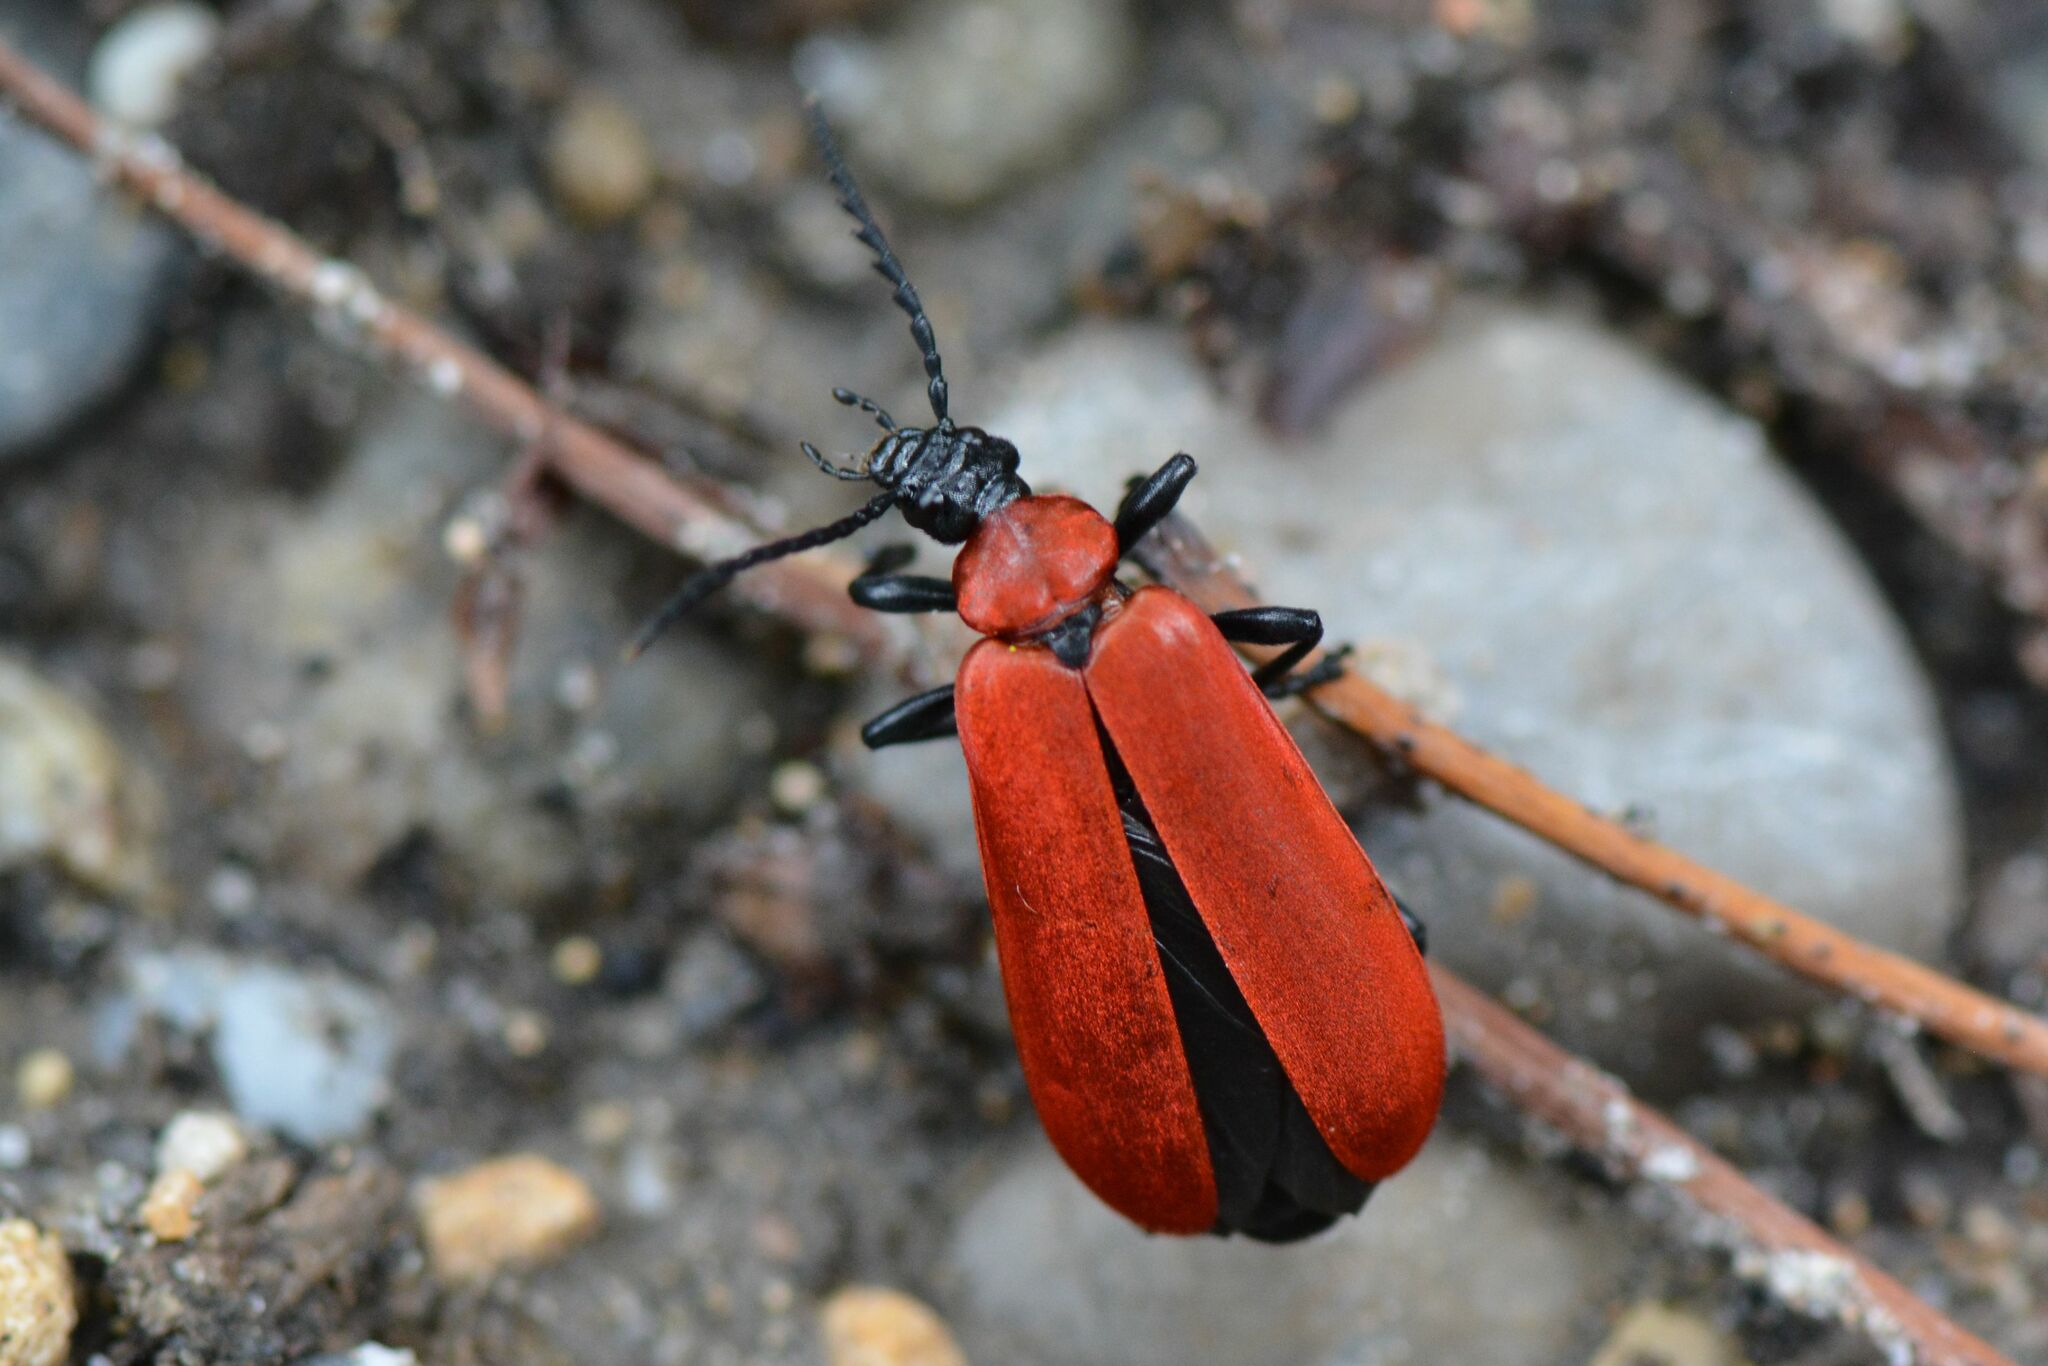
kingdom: Animalia
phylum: Arthropoda
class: Insecta
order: Coleoptera
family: Pyrochroidae
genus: Pyrochroa
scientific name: Pyrochroa coccinea
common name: Black-headed cardinal beetle
